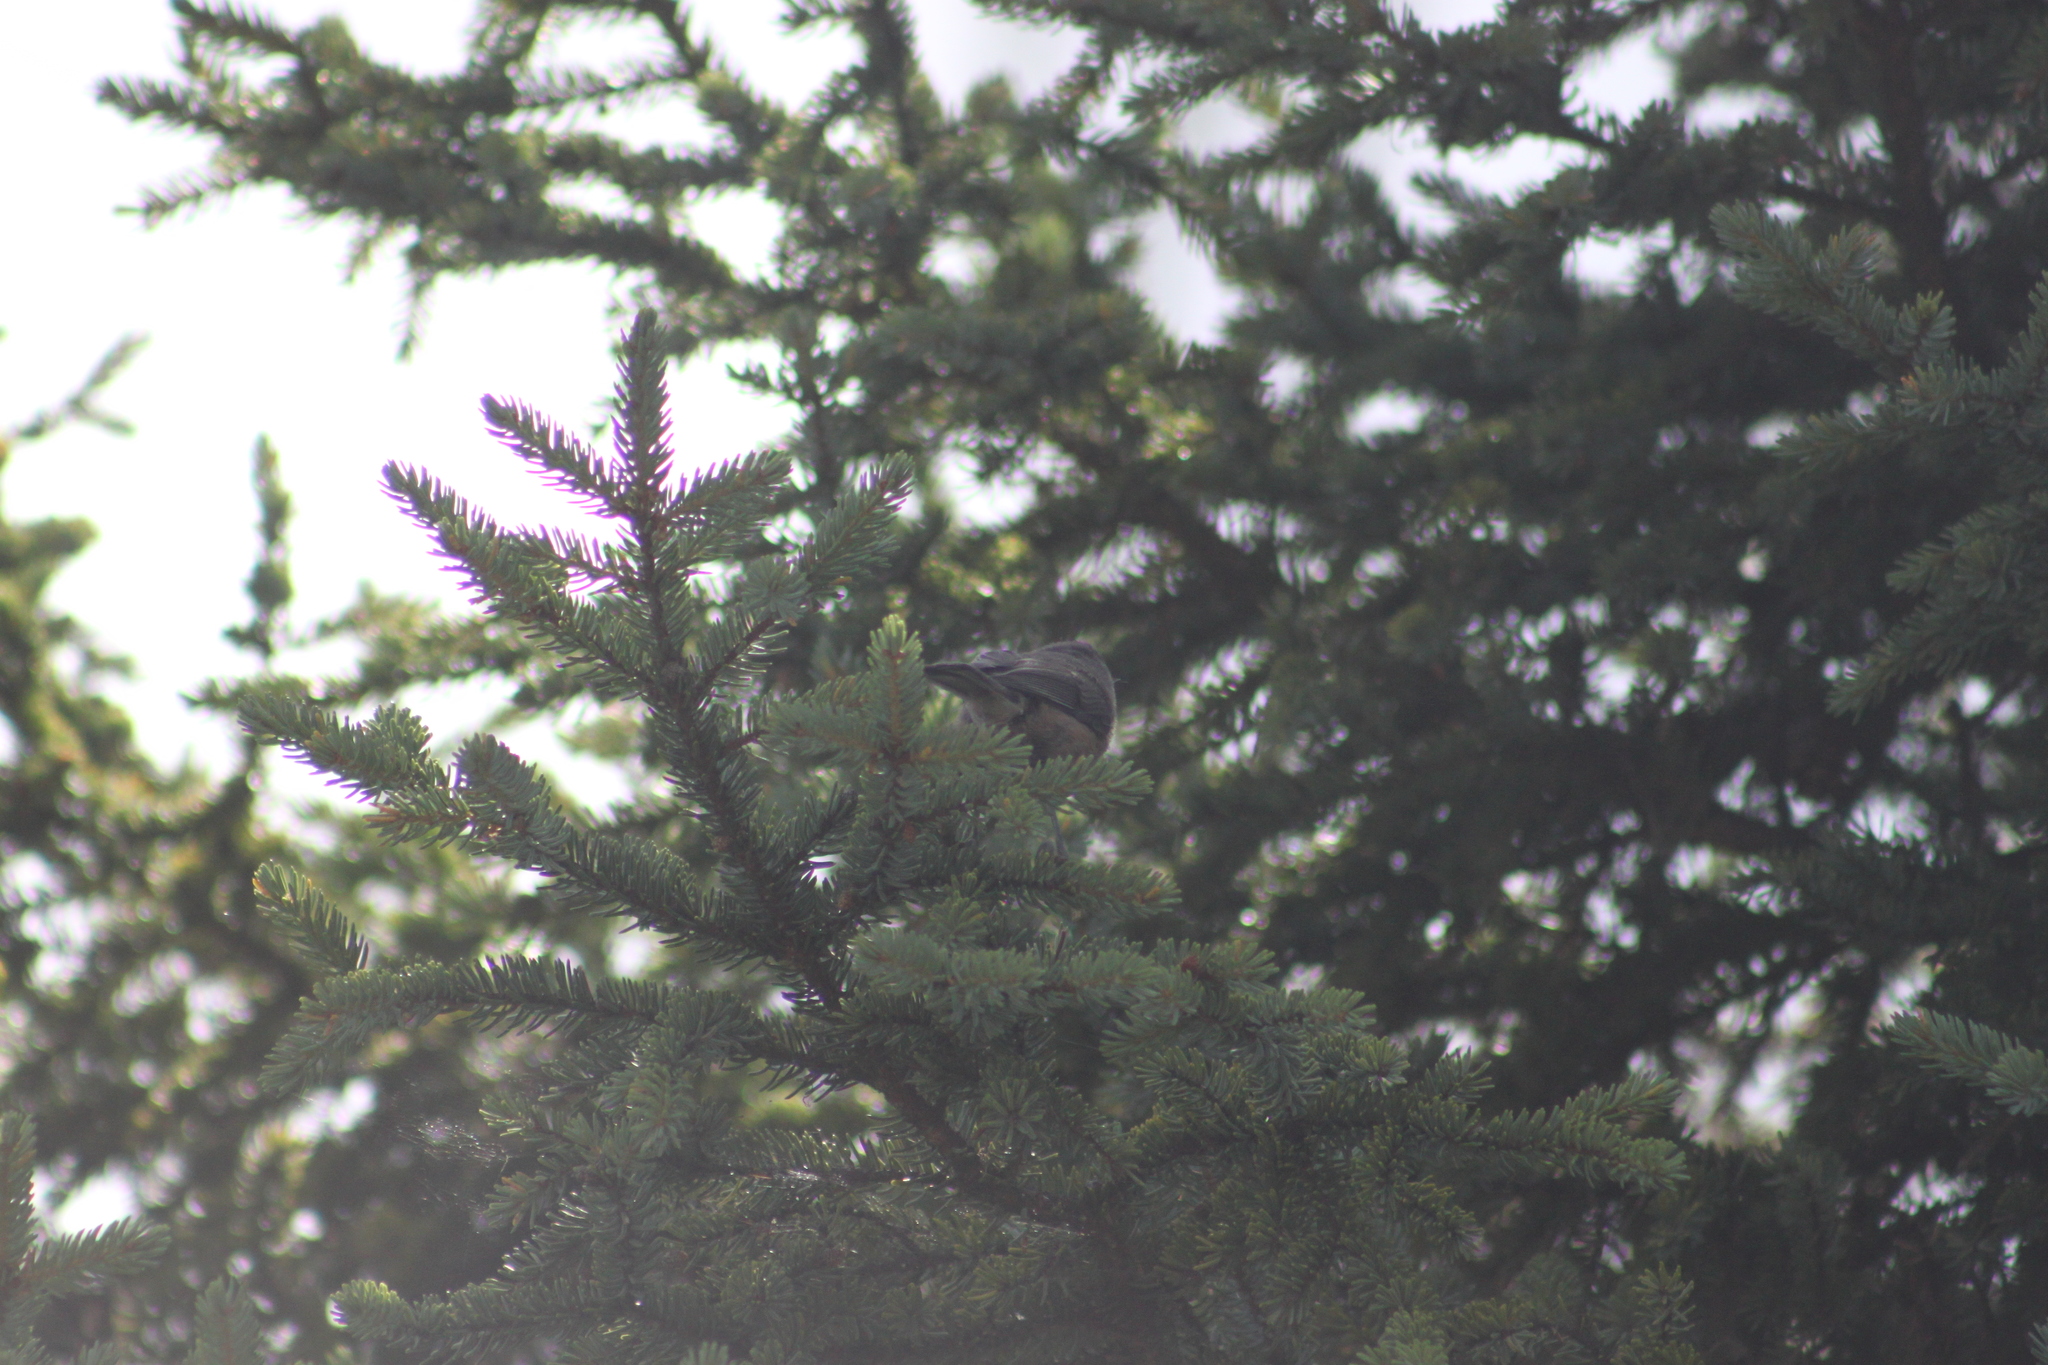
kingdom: Animalia
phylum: Chordata
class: Aves
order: Passeriformes
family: Paridae
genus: Poecile
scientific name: Poecile hudsonicus
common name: Boreal chickadee
